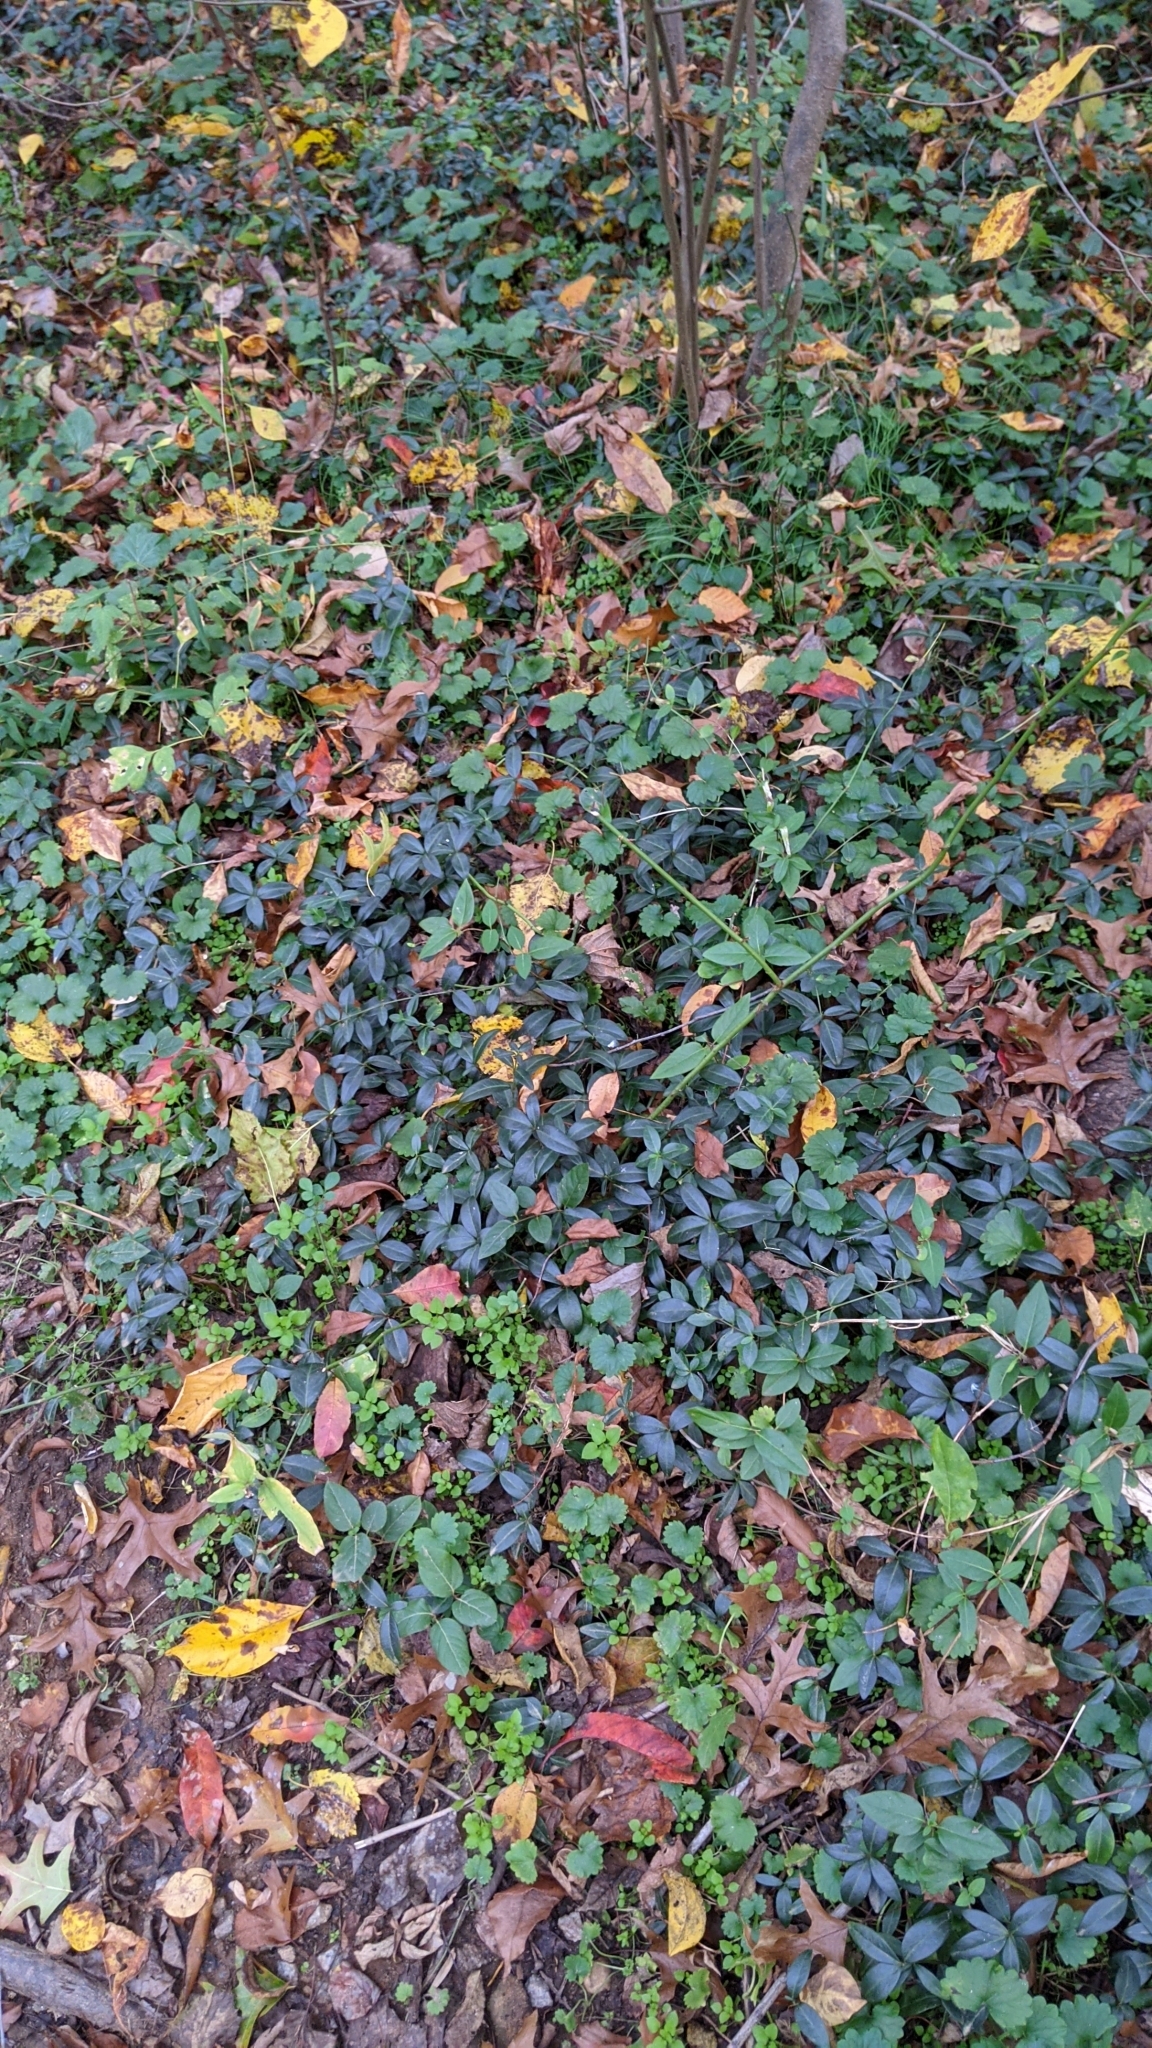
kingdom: Plantae
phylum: Tracheophyta
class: Magnoliopsida
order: Gentianales
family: Apocynaceae
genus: Vinca
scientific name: Vinca minor
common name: Lesser periwinkle
